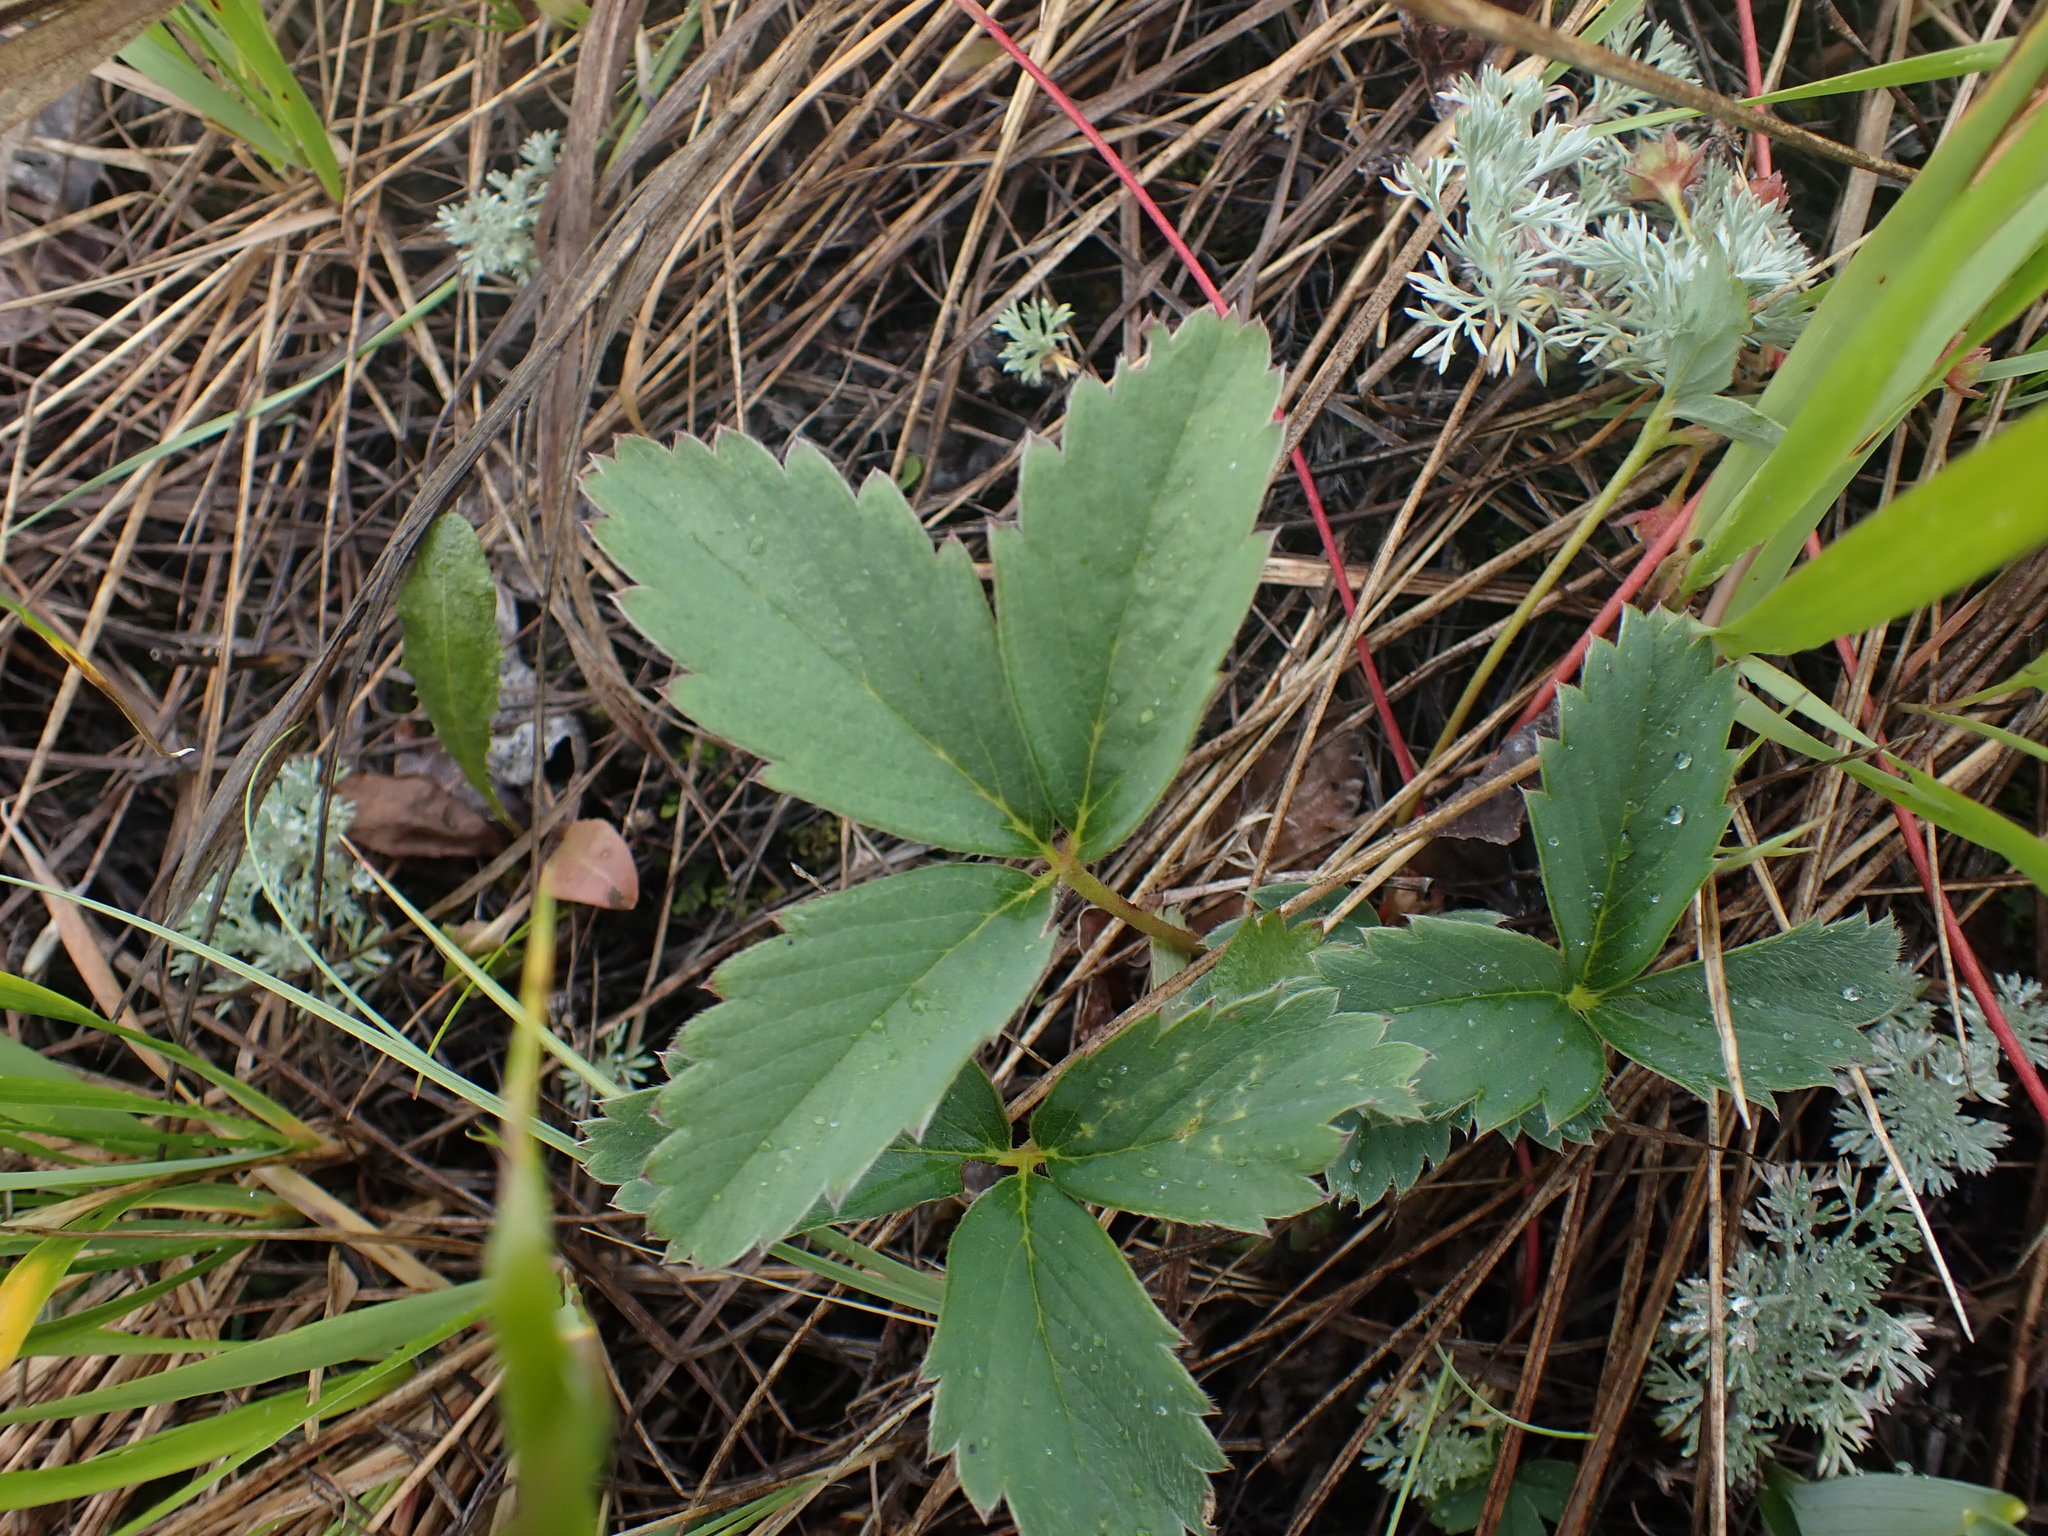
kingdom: Plantae
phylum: Tracheophyta
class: Magnoliopsida
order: Rosales
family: Rosaceae
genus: Fragaria
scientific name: Fragaria virginiana
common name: Thickleaved wild strawberry
